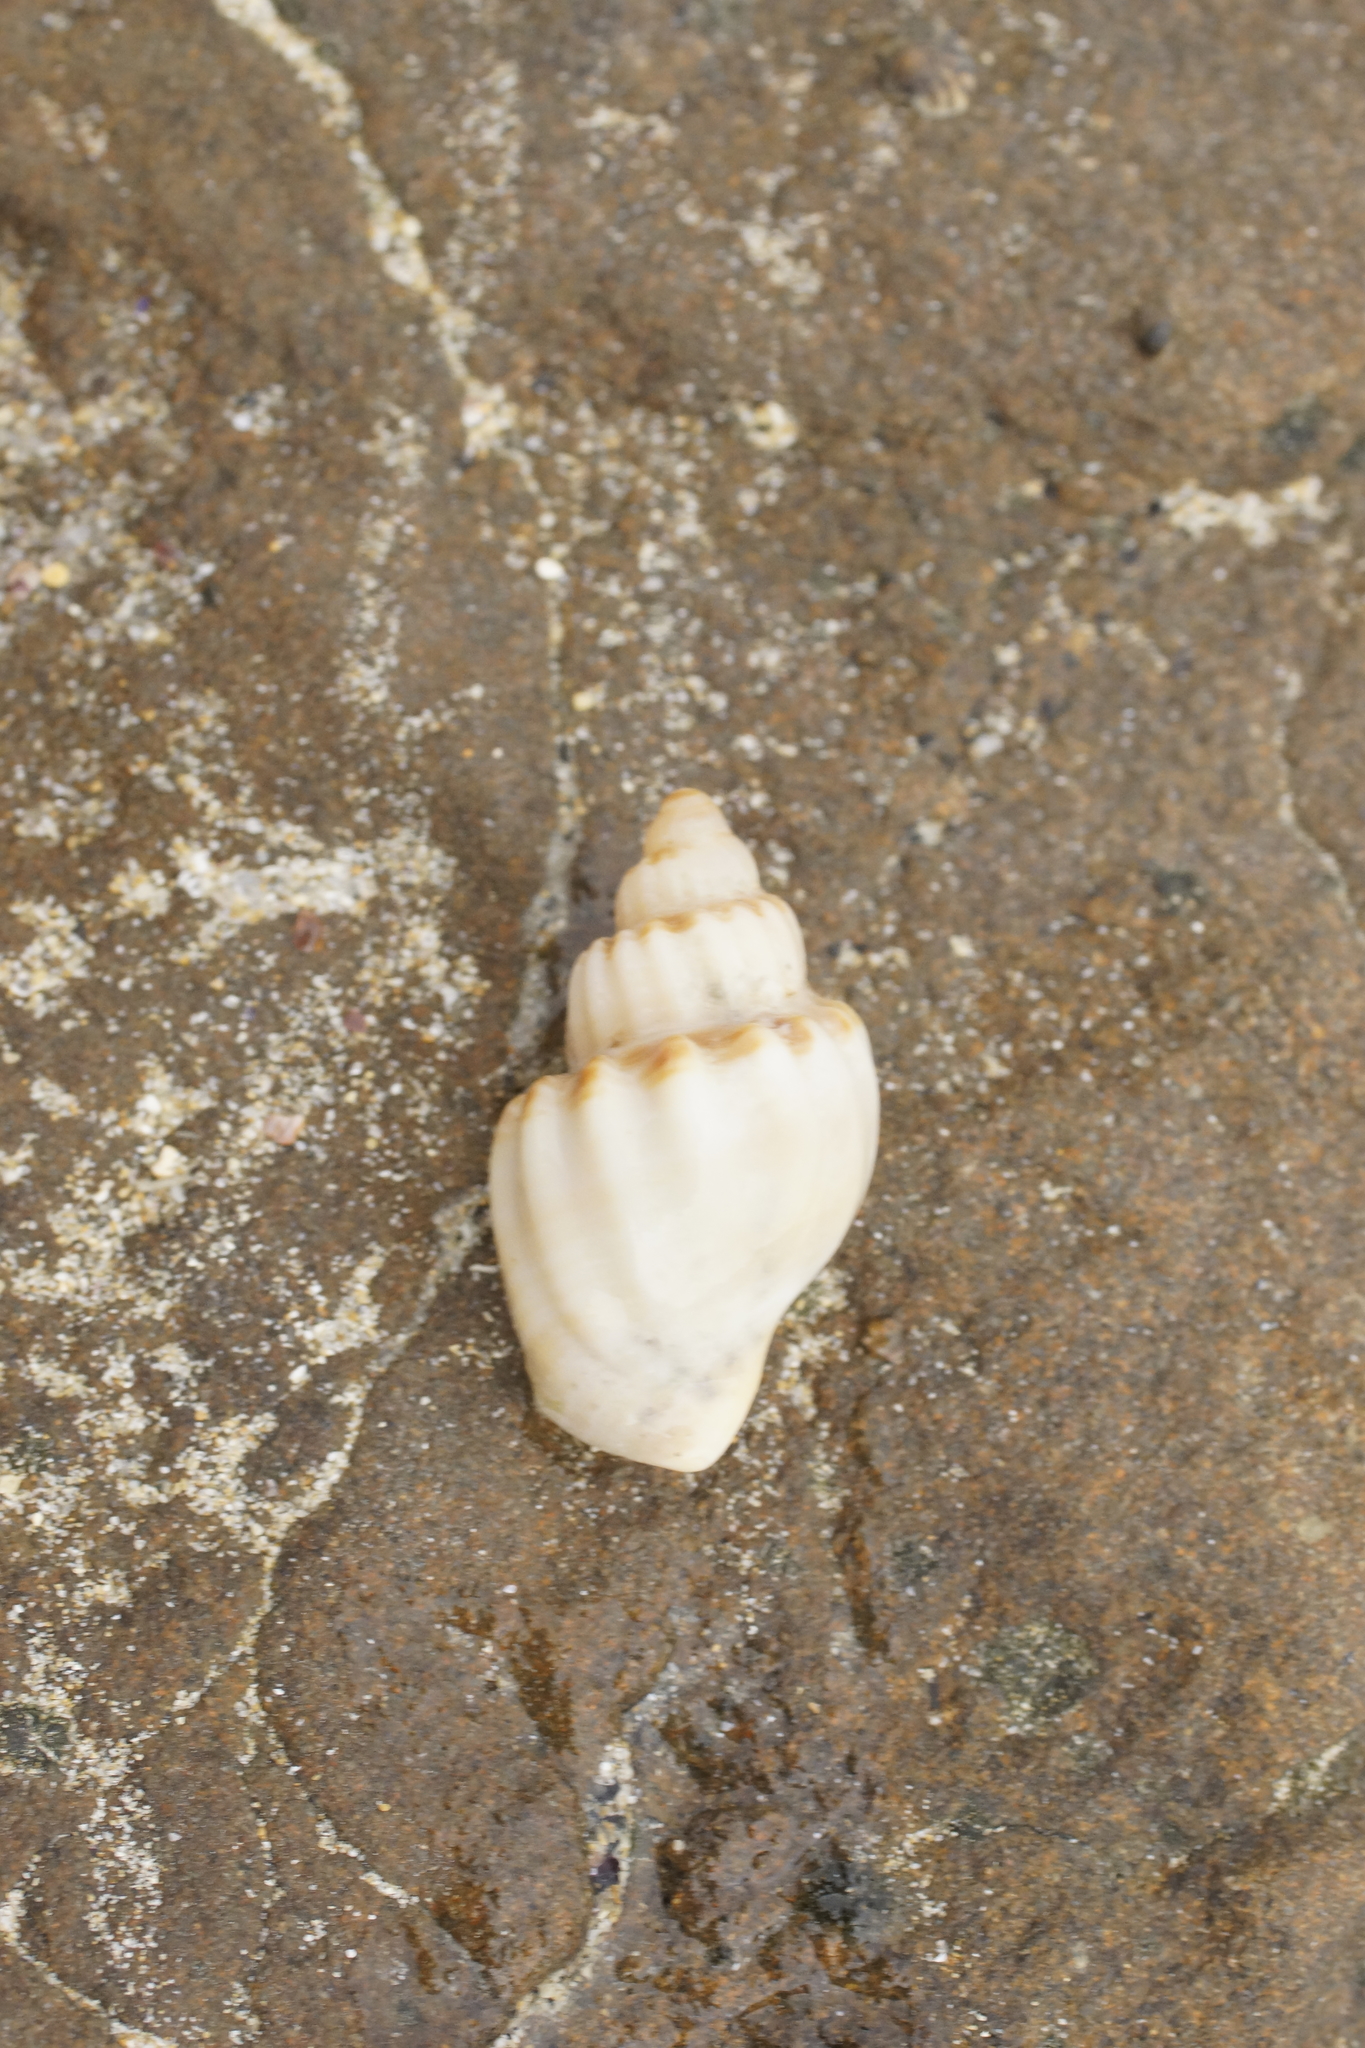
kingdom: Animalia
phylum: Mollusca
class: Gastropoda
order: Neogastropoda
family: Cancellariidae
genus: Merica
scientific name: Merica undulata
